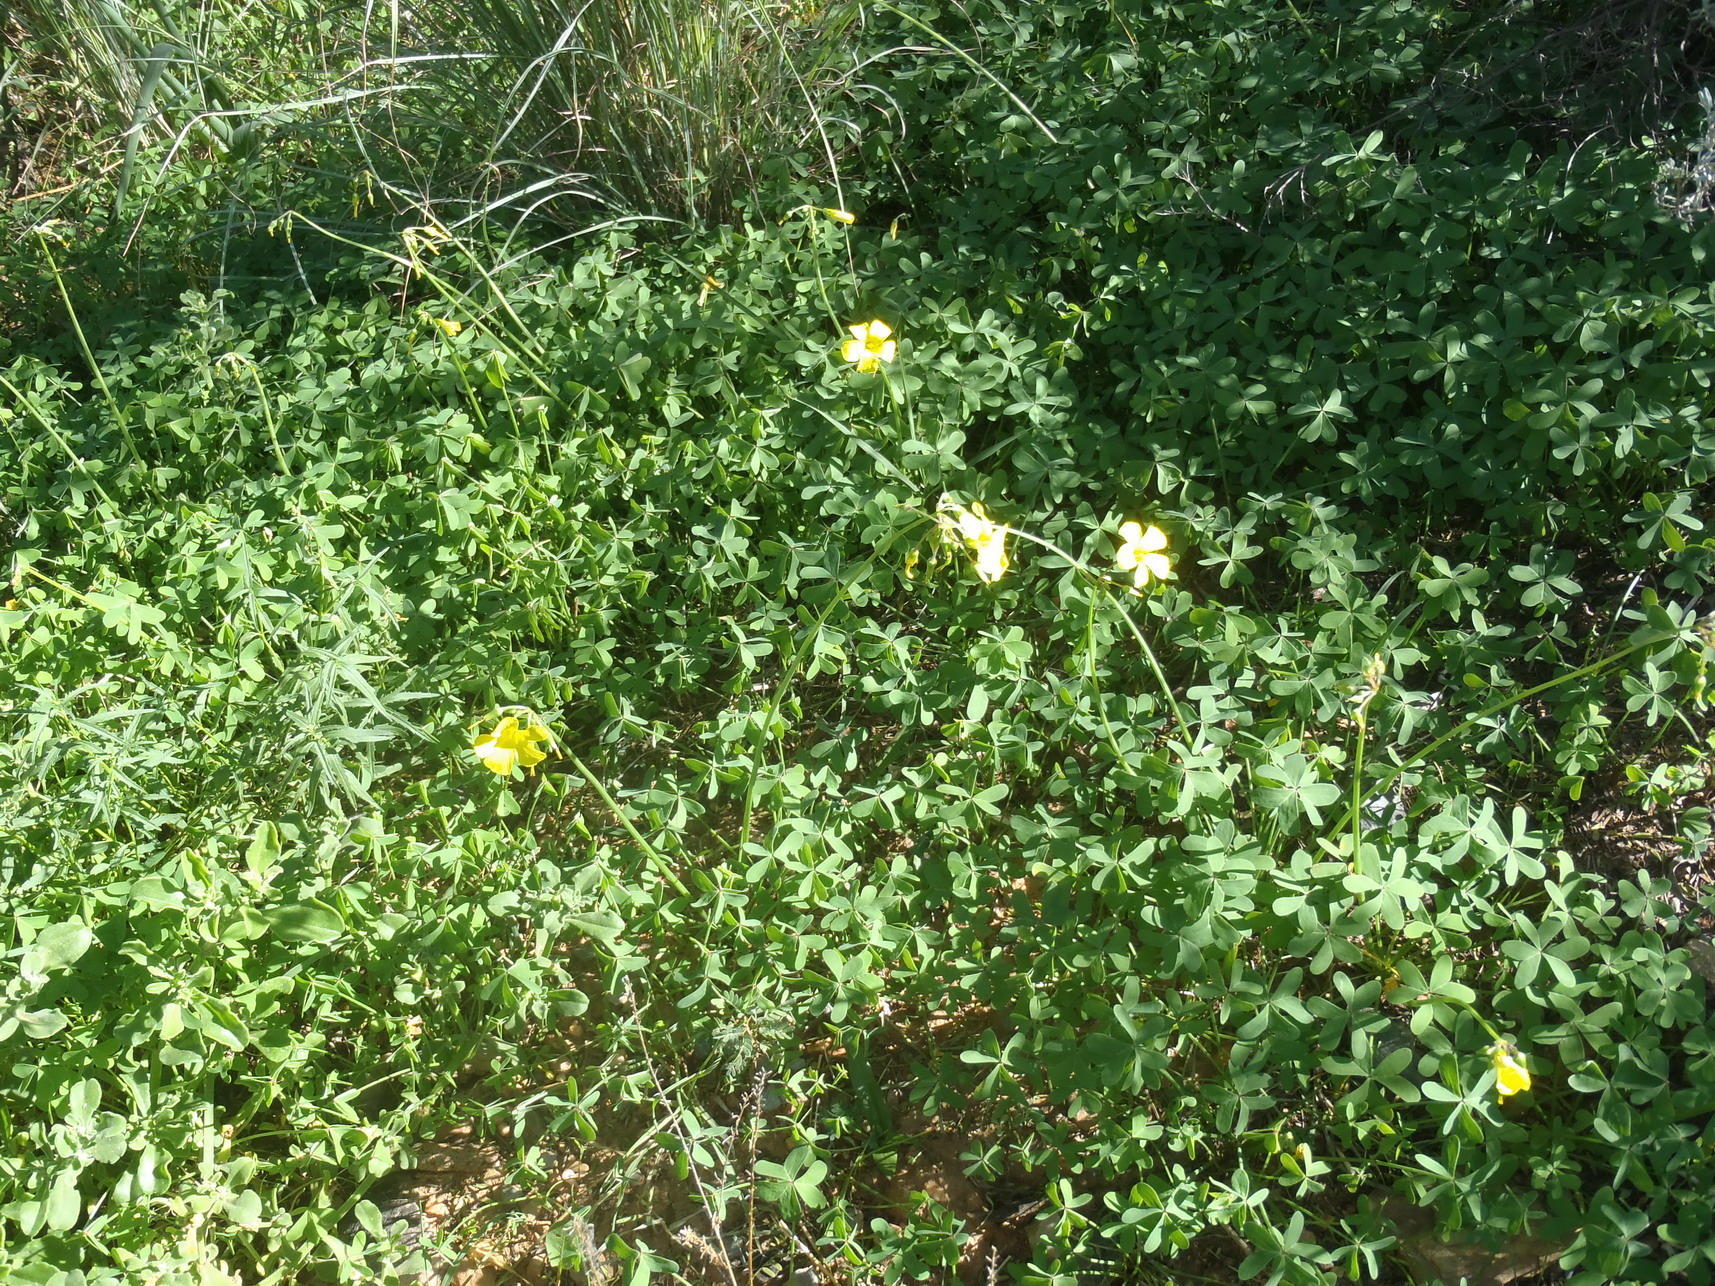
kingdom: Plantae
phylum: Tracheophyta
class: Magnoliopsida
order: Oxalidales
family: Oxalidaceae
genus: Oxalis
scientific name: Oxalis pes-caprae
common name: Bermuda-buttercup
